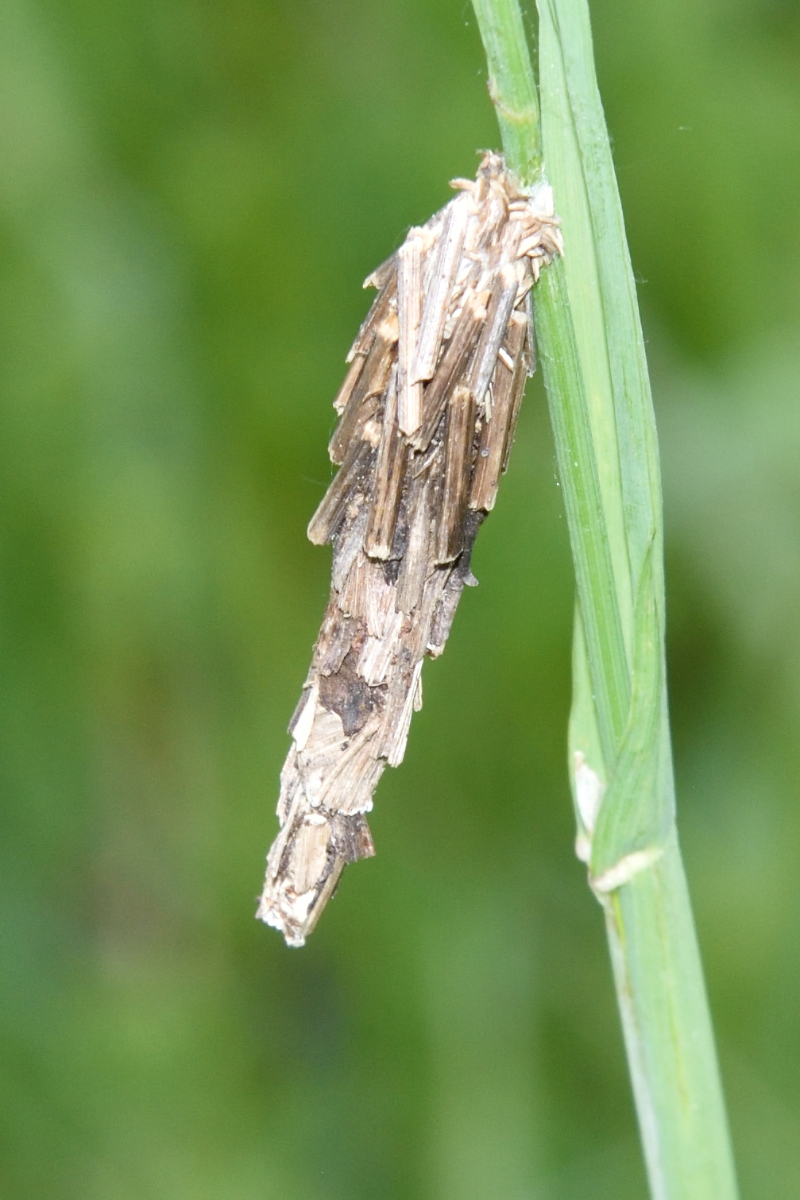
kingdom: Animalia
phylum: Arthropoda
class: Insecta
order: Lepidoptera
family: Psychidae
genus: Canephora
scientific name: Canephora hirsuta
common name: Hairy sweep
